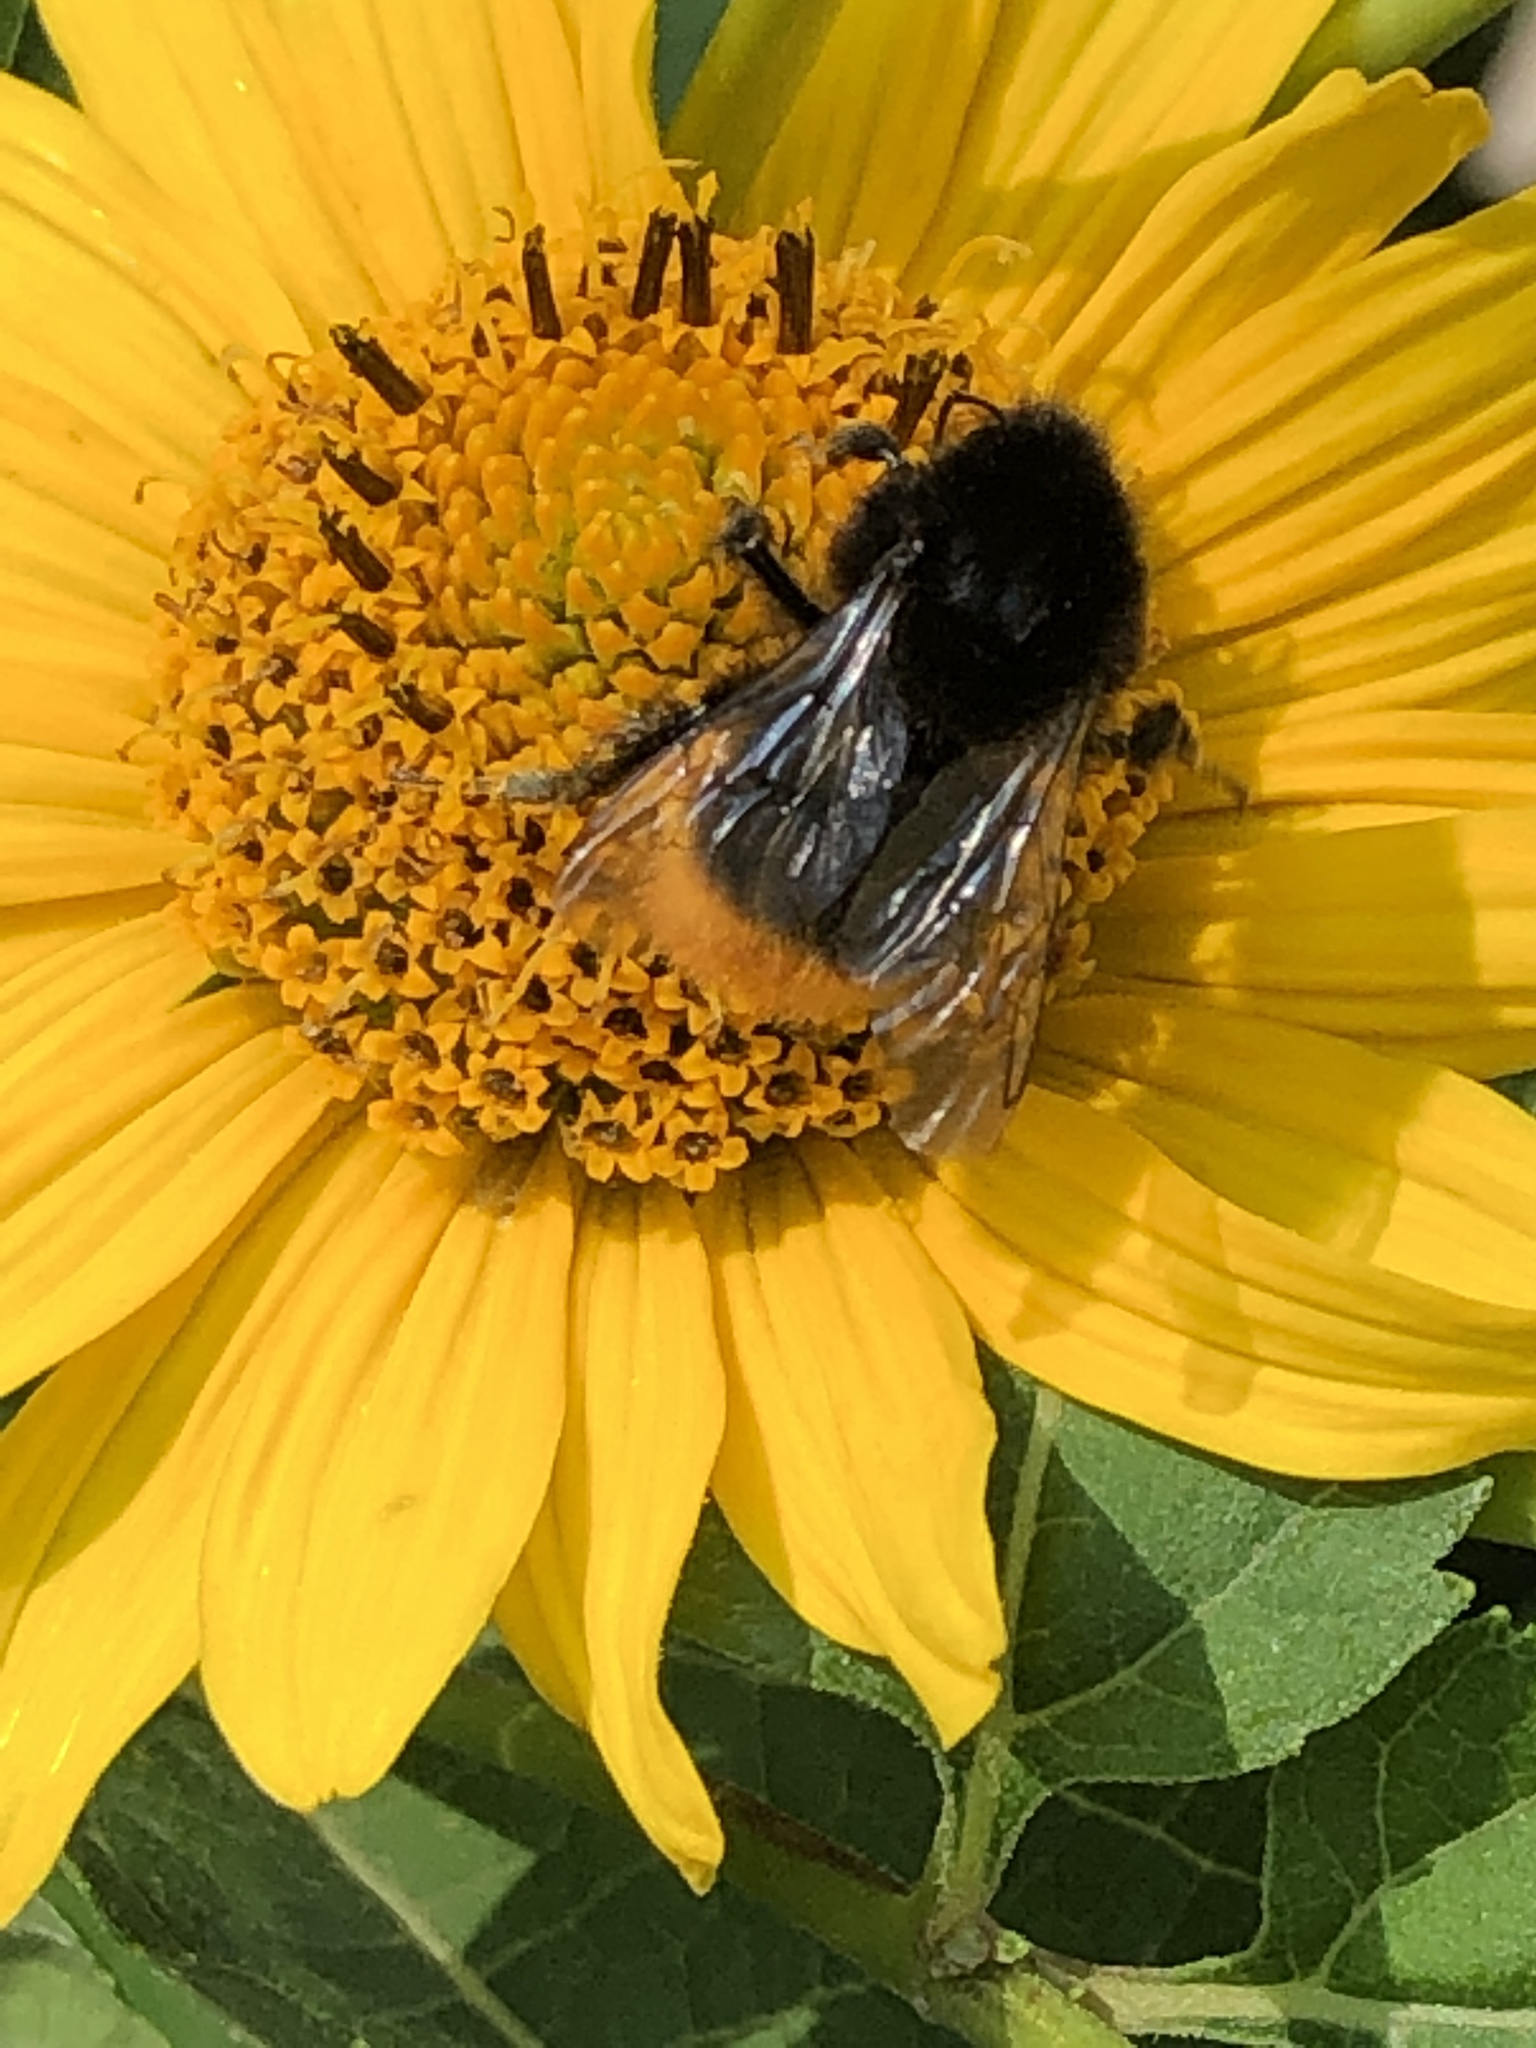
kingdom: Animalia
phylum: Arthropoda
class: Insecta
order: Hymenoptera
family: Apidae
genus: Bombus
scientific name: Bombus lapidarius
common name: Large red-tailed humble-bee
